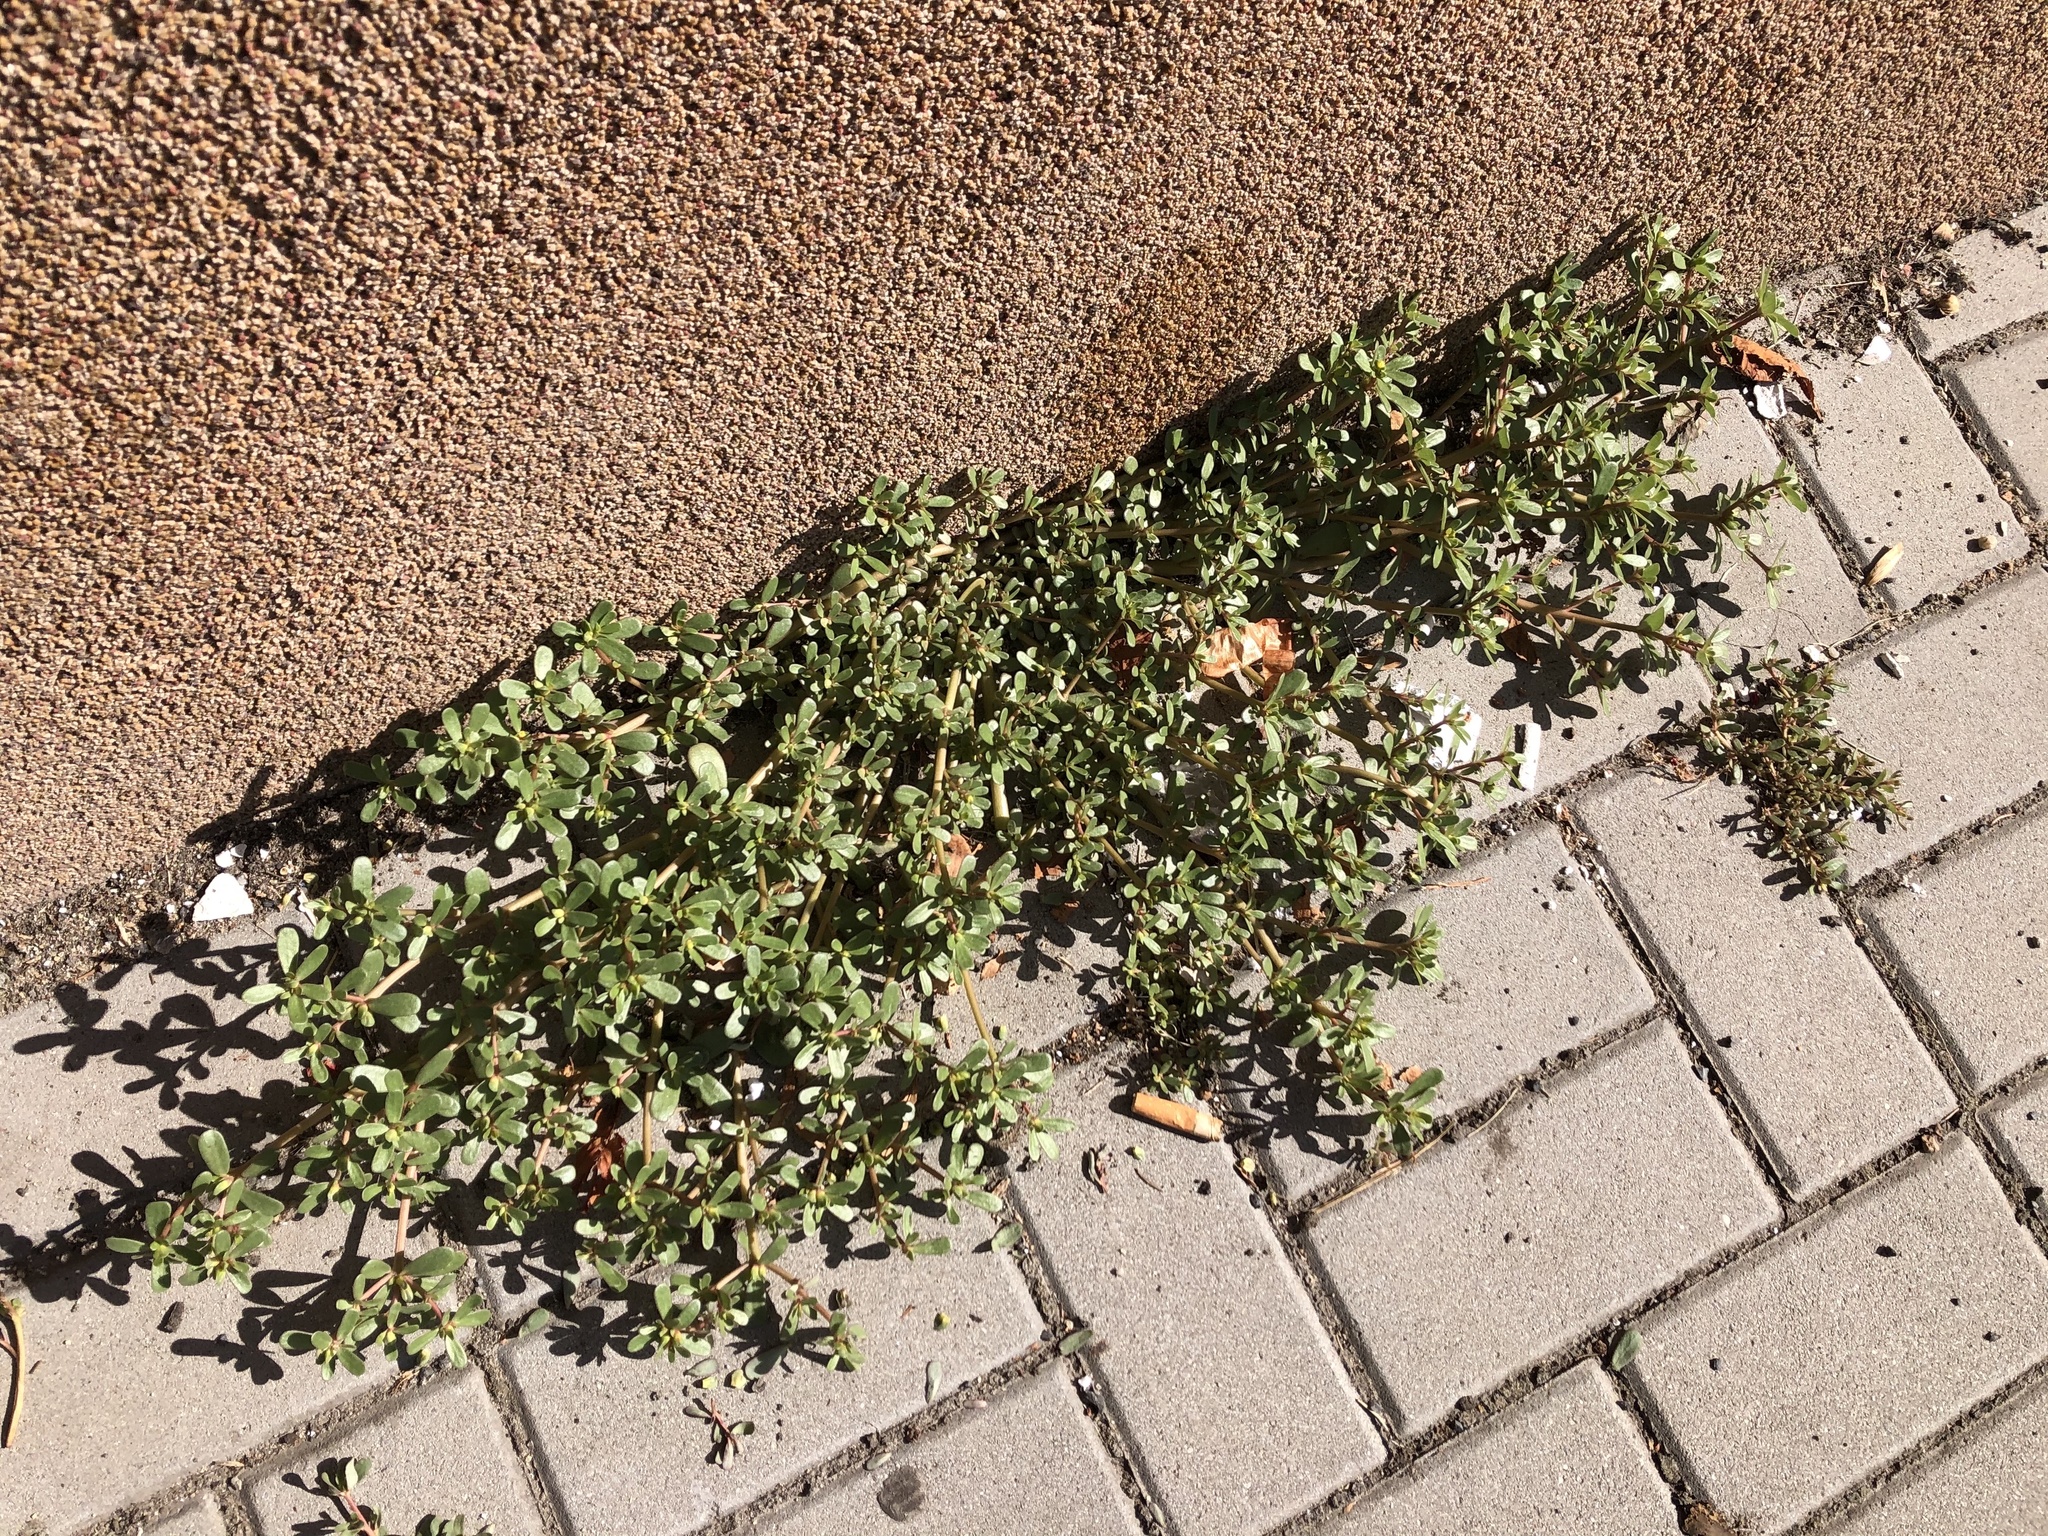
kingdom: Plantae
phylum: Tracheophyta
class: Magnoliopsida
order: Caryophyllales
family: Portulacaceae
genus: Portulaca
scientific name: Portulaca oleracea
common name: Common purslane
